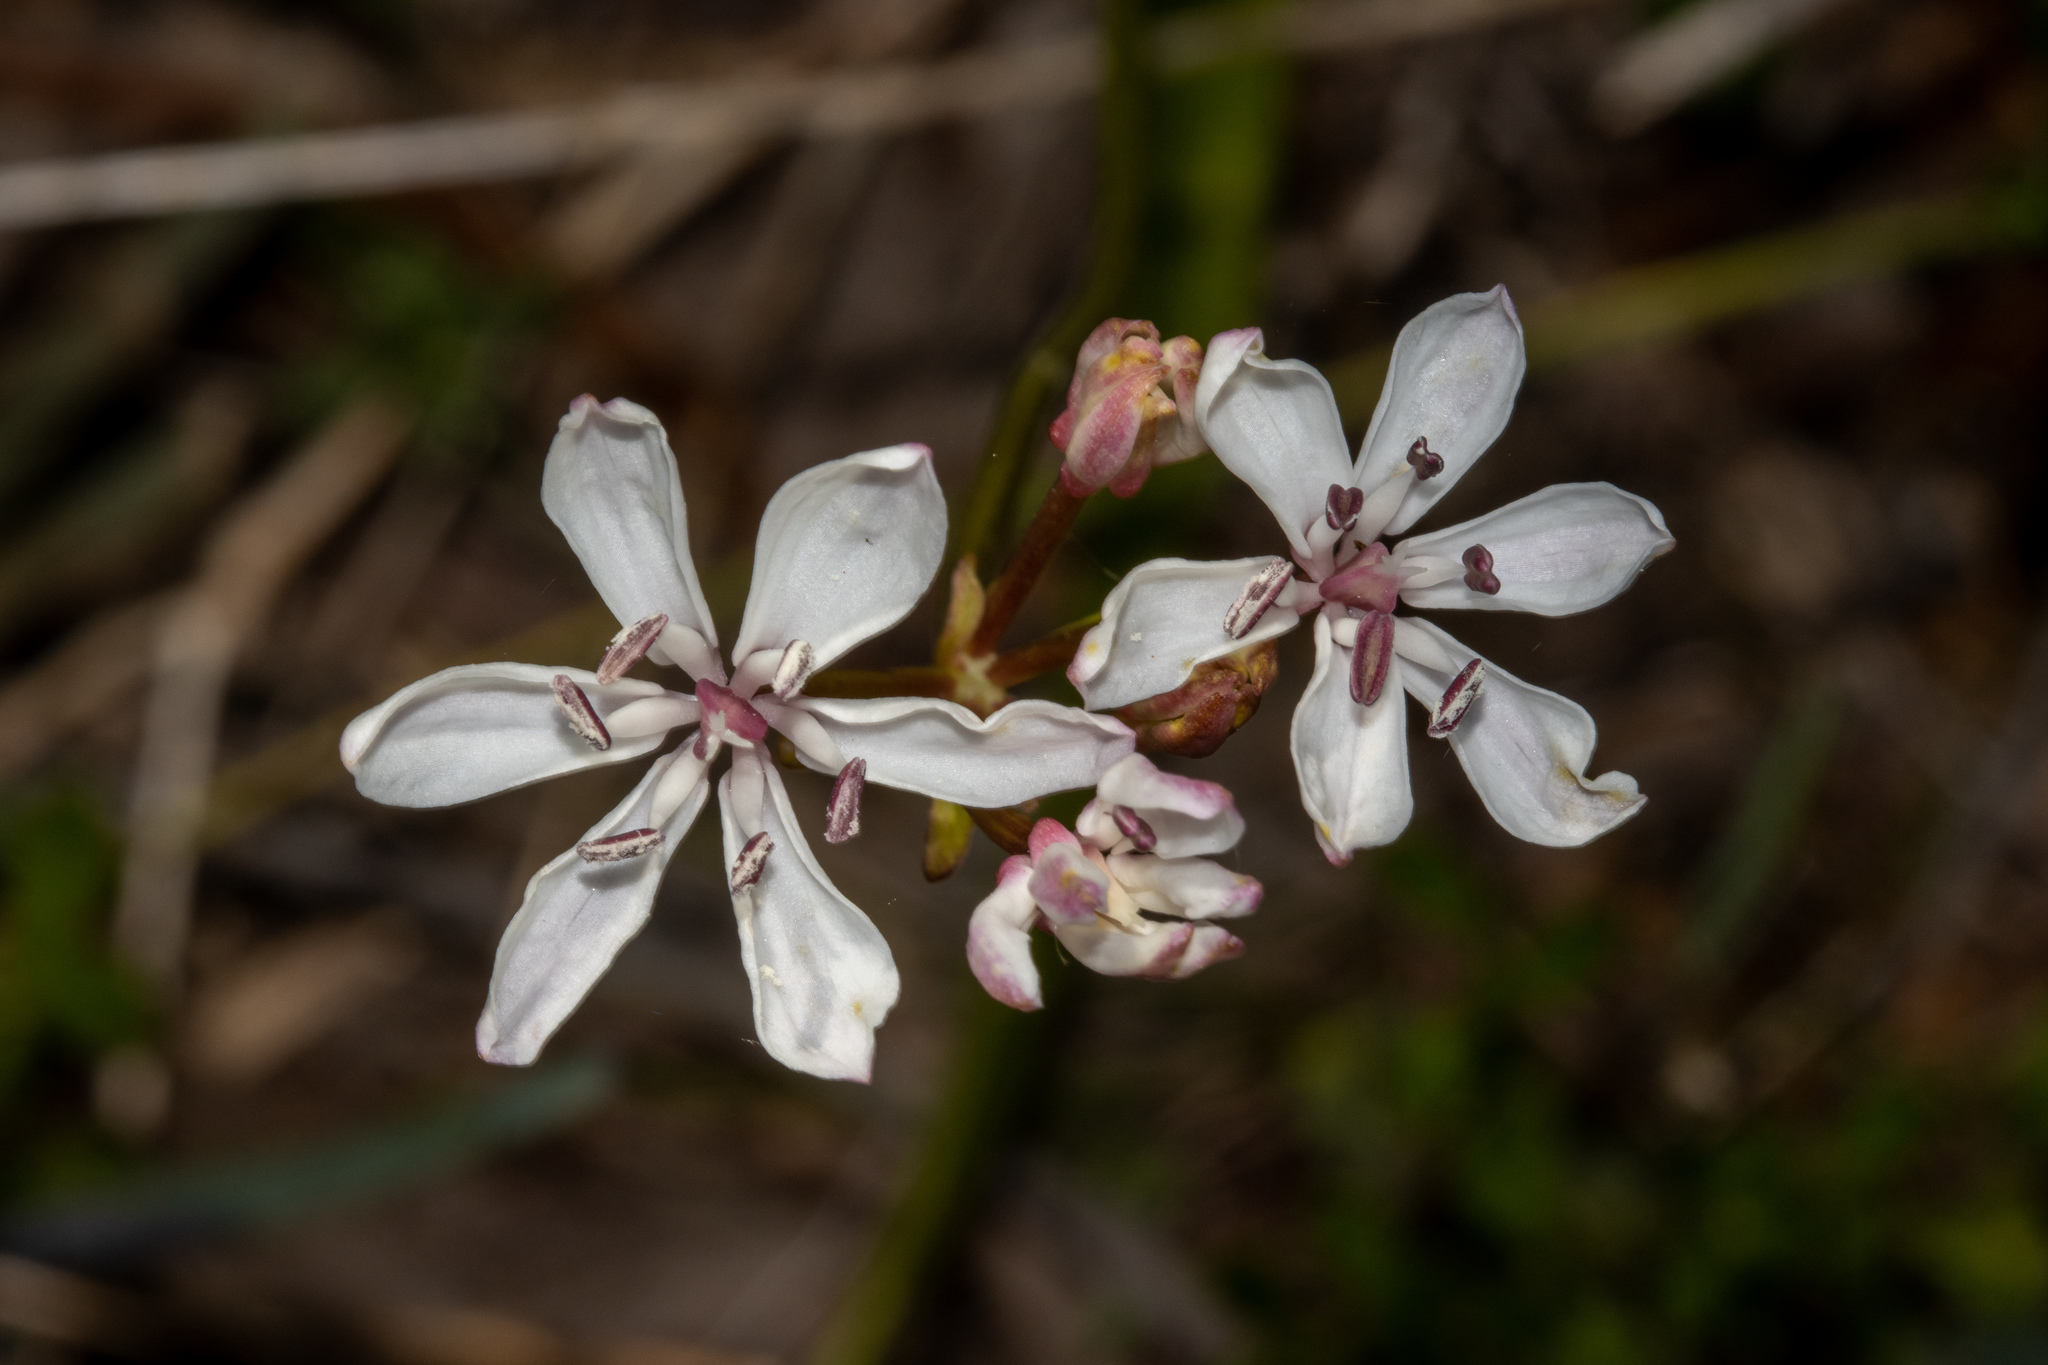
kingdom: Plantae
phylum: Tracheophyta
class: Liliopsida
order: Liliales
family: Colchicaceae
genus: Burchardia
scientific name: Burchardia umbellata
